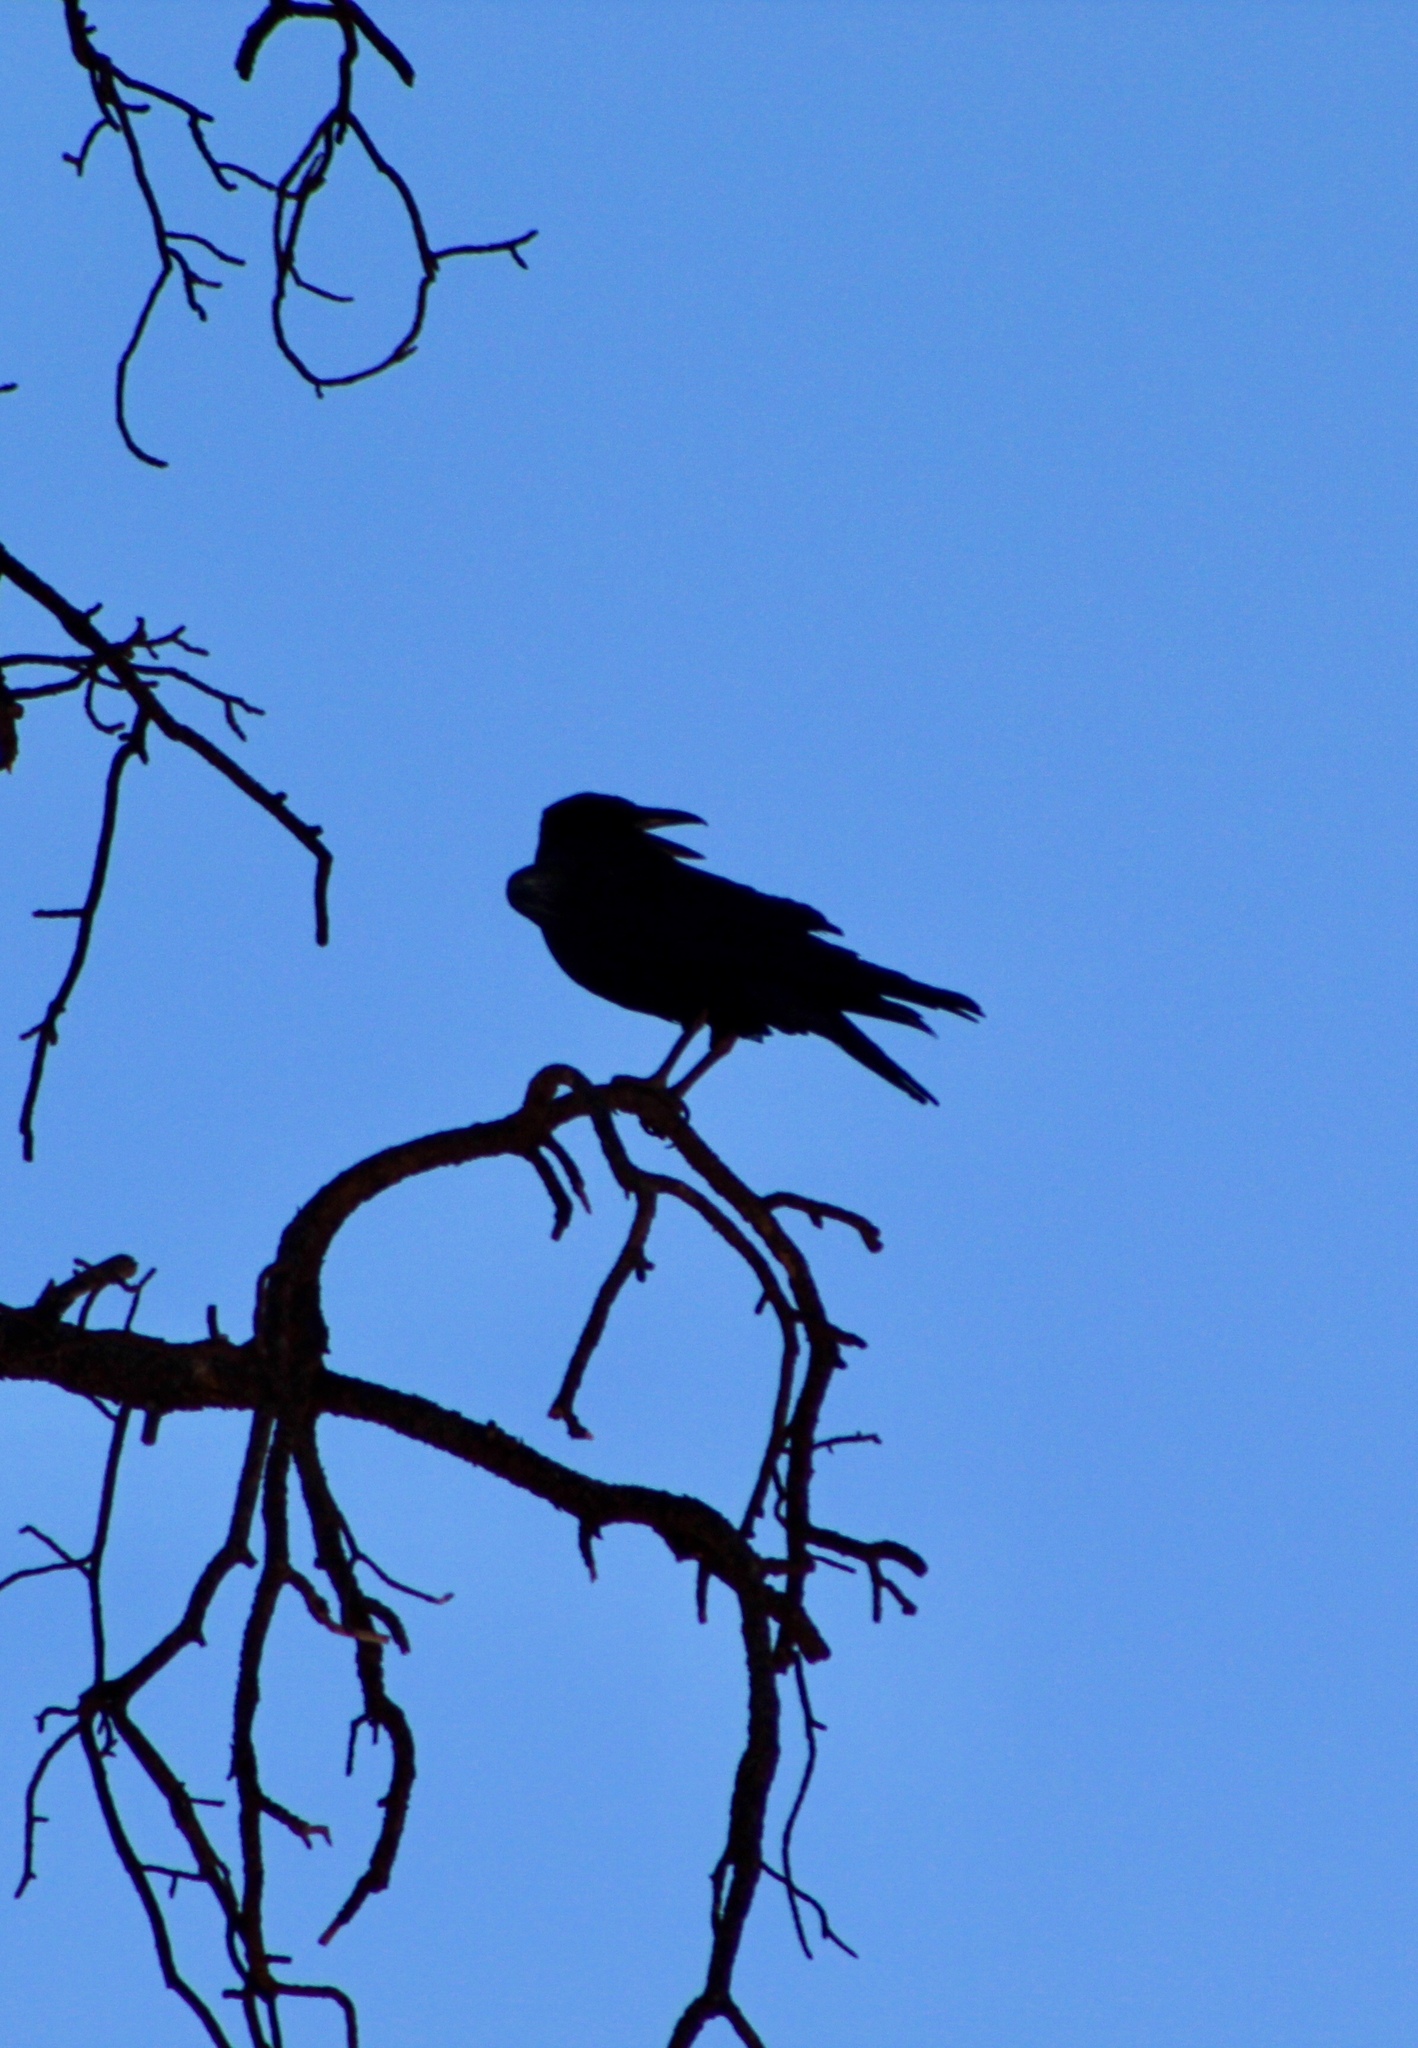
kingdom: Animalia
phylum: Chordata
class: Aves
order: Passeriformes
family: Corvidae
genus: Corvus
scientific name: Corvus corax
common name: Common raven
